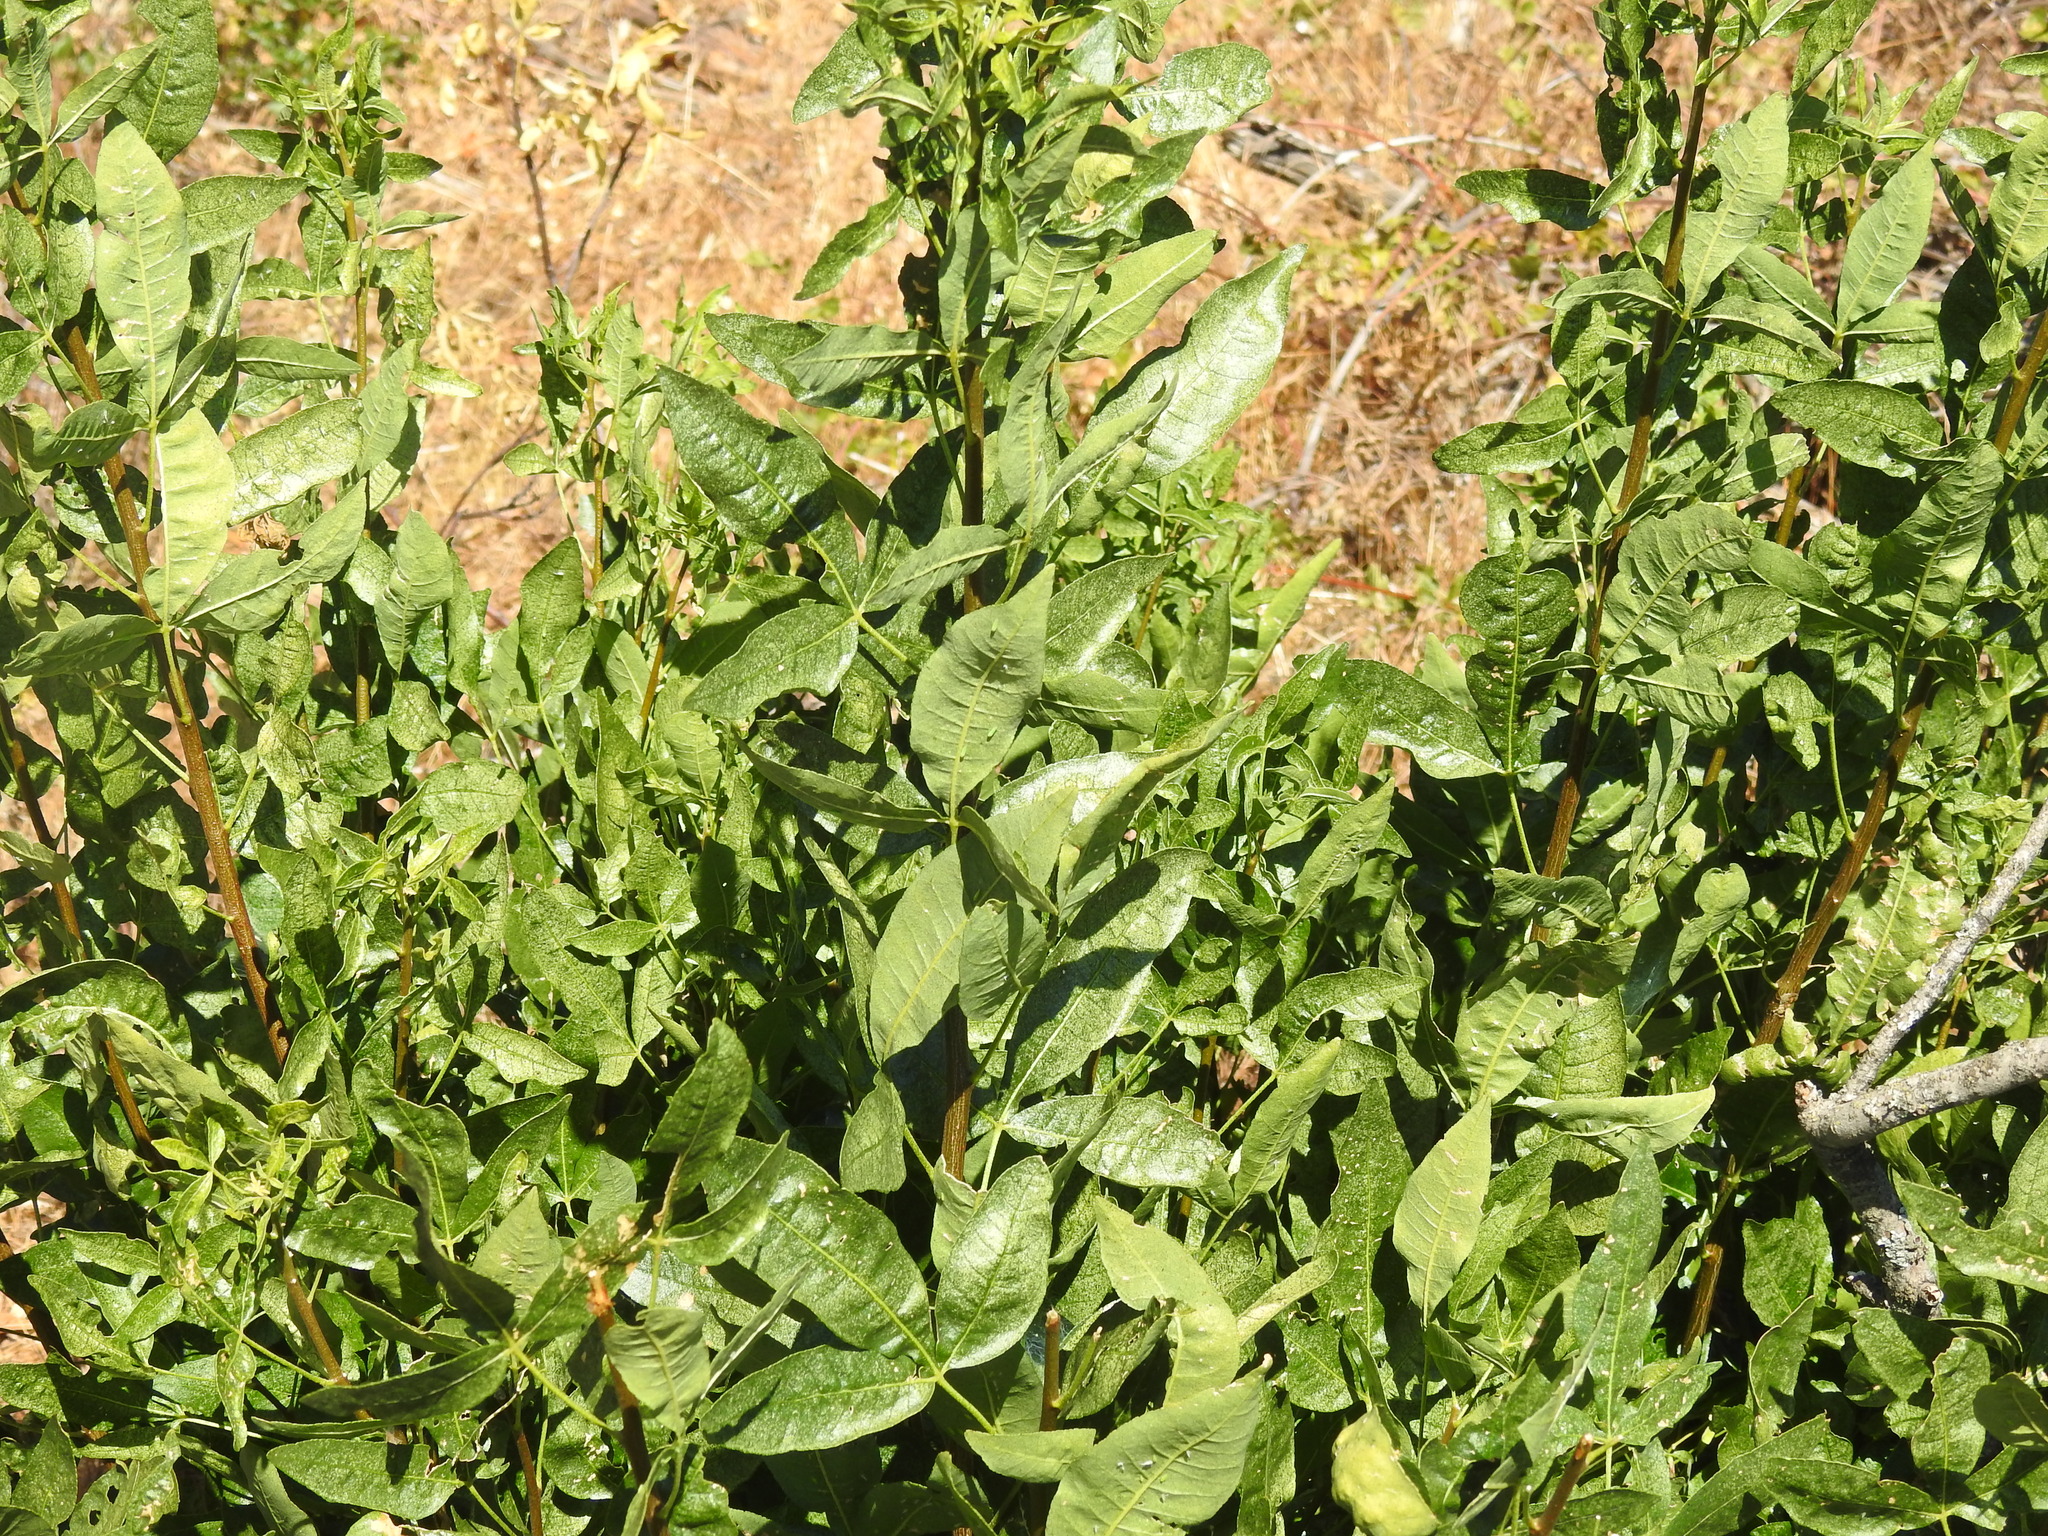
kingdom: Plantae
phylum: Tracheophyta
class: Magnoliopsida
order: Sapindales
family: Rutaceae
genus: Ptelea
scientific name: Ptelea crenulata
